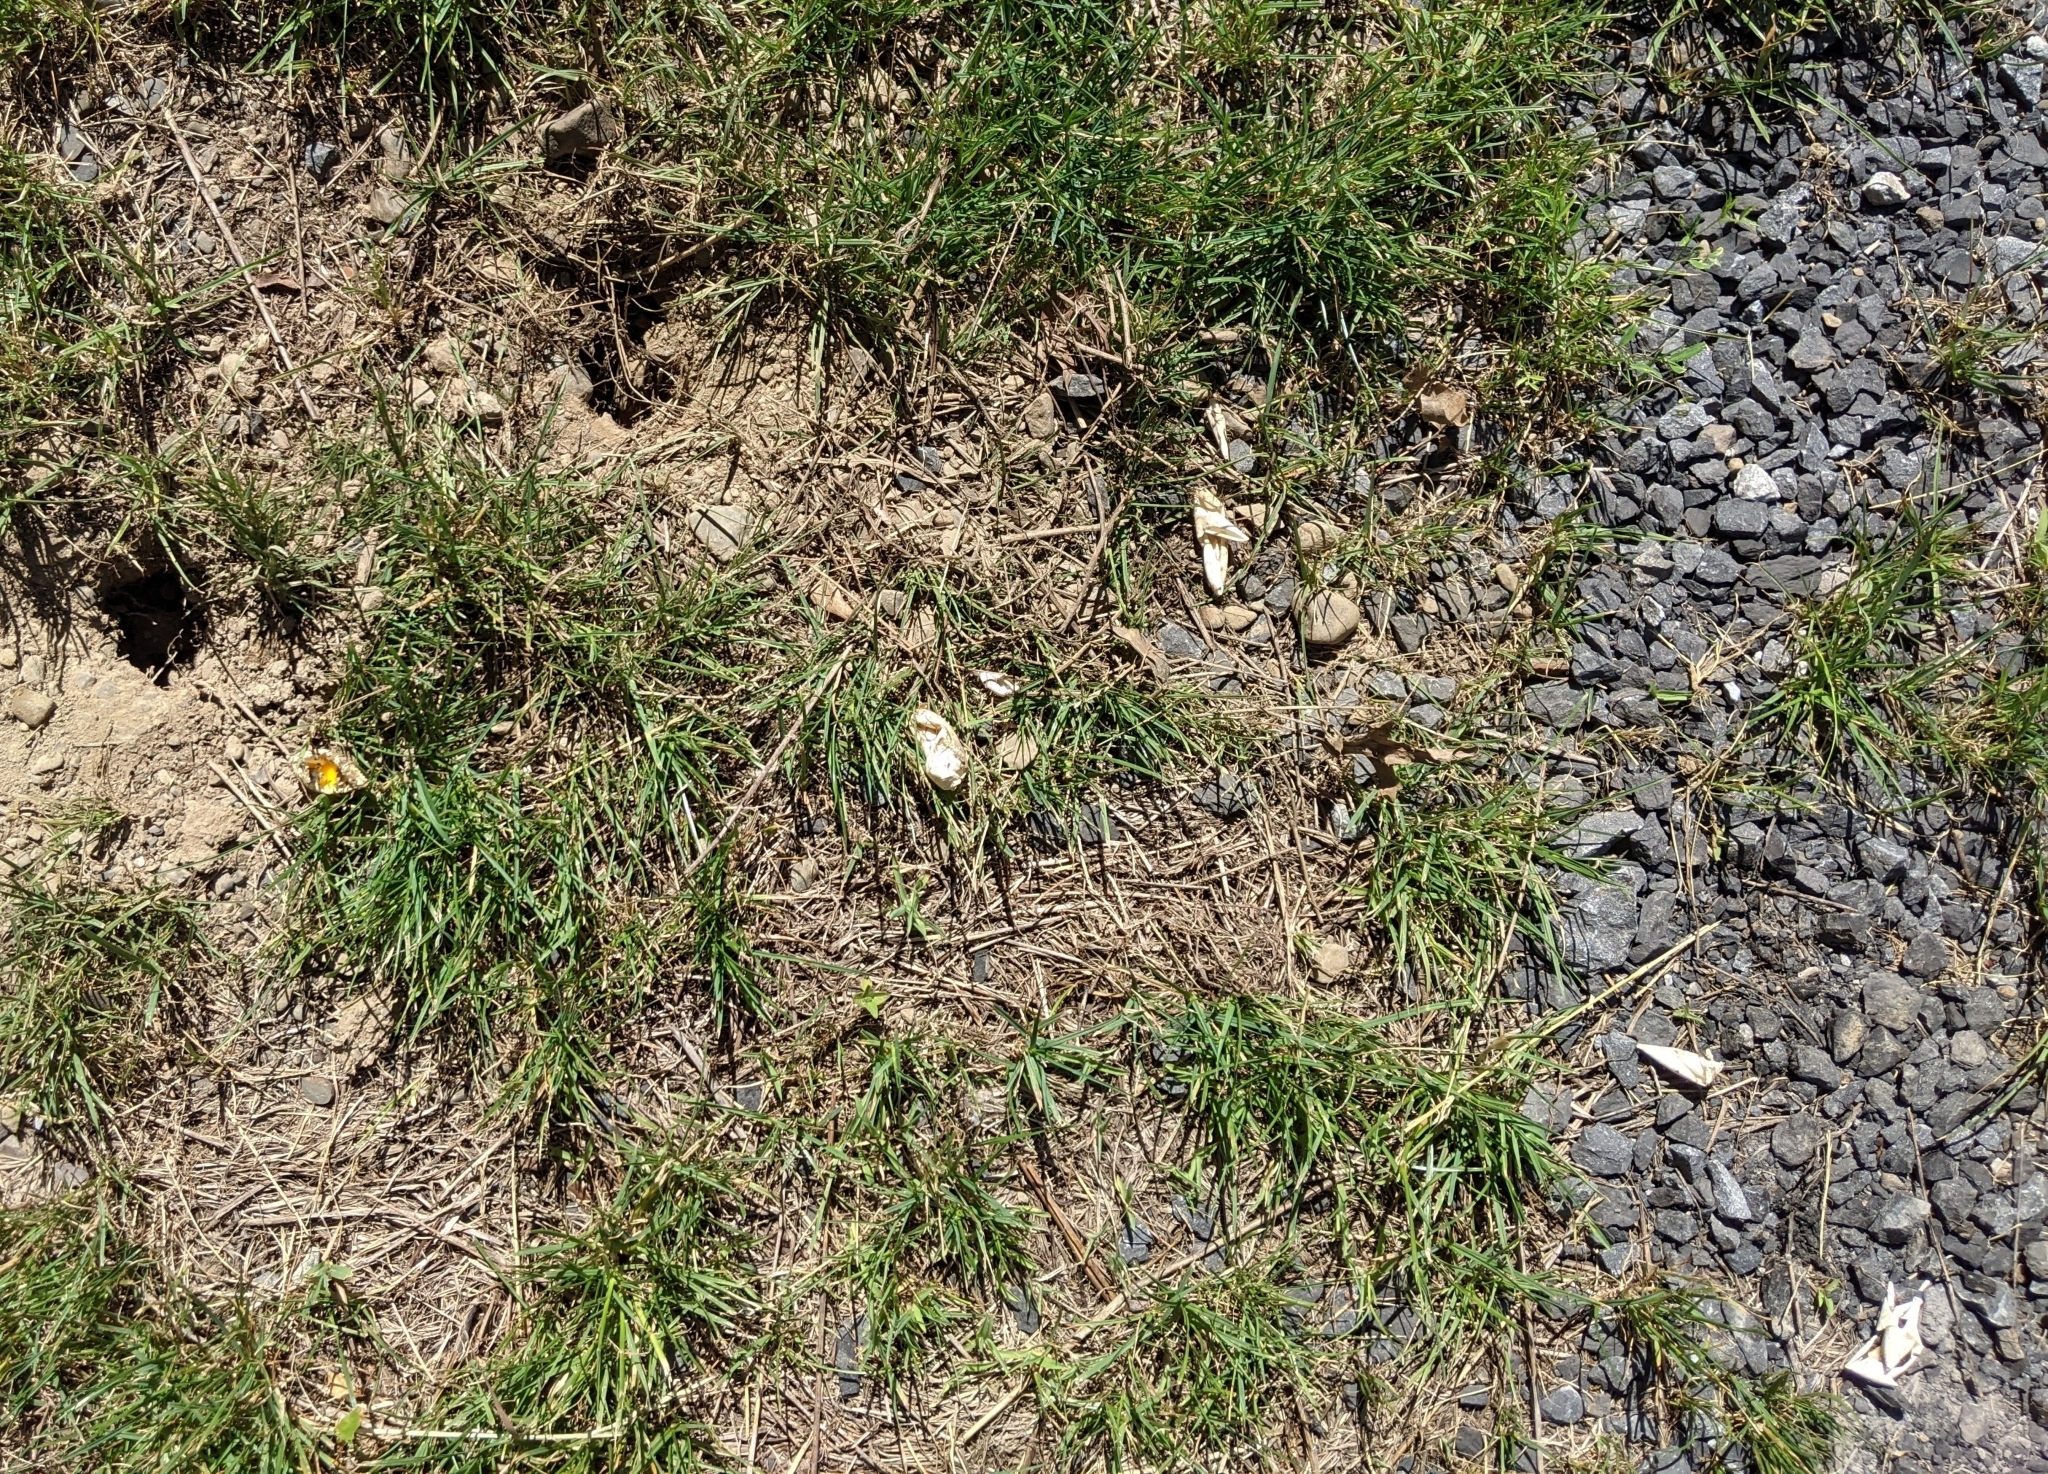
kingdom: Animalia
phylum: Chordata
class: Testudines
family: Emydidae
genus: Terrapene
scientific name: Terrapene carolina
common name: Common box turtle
